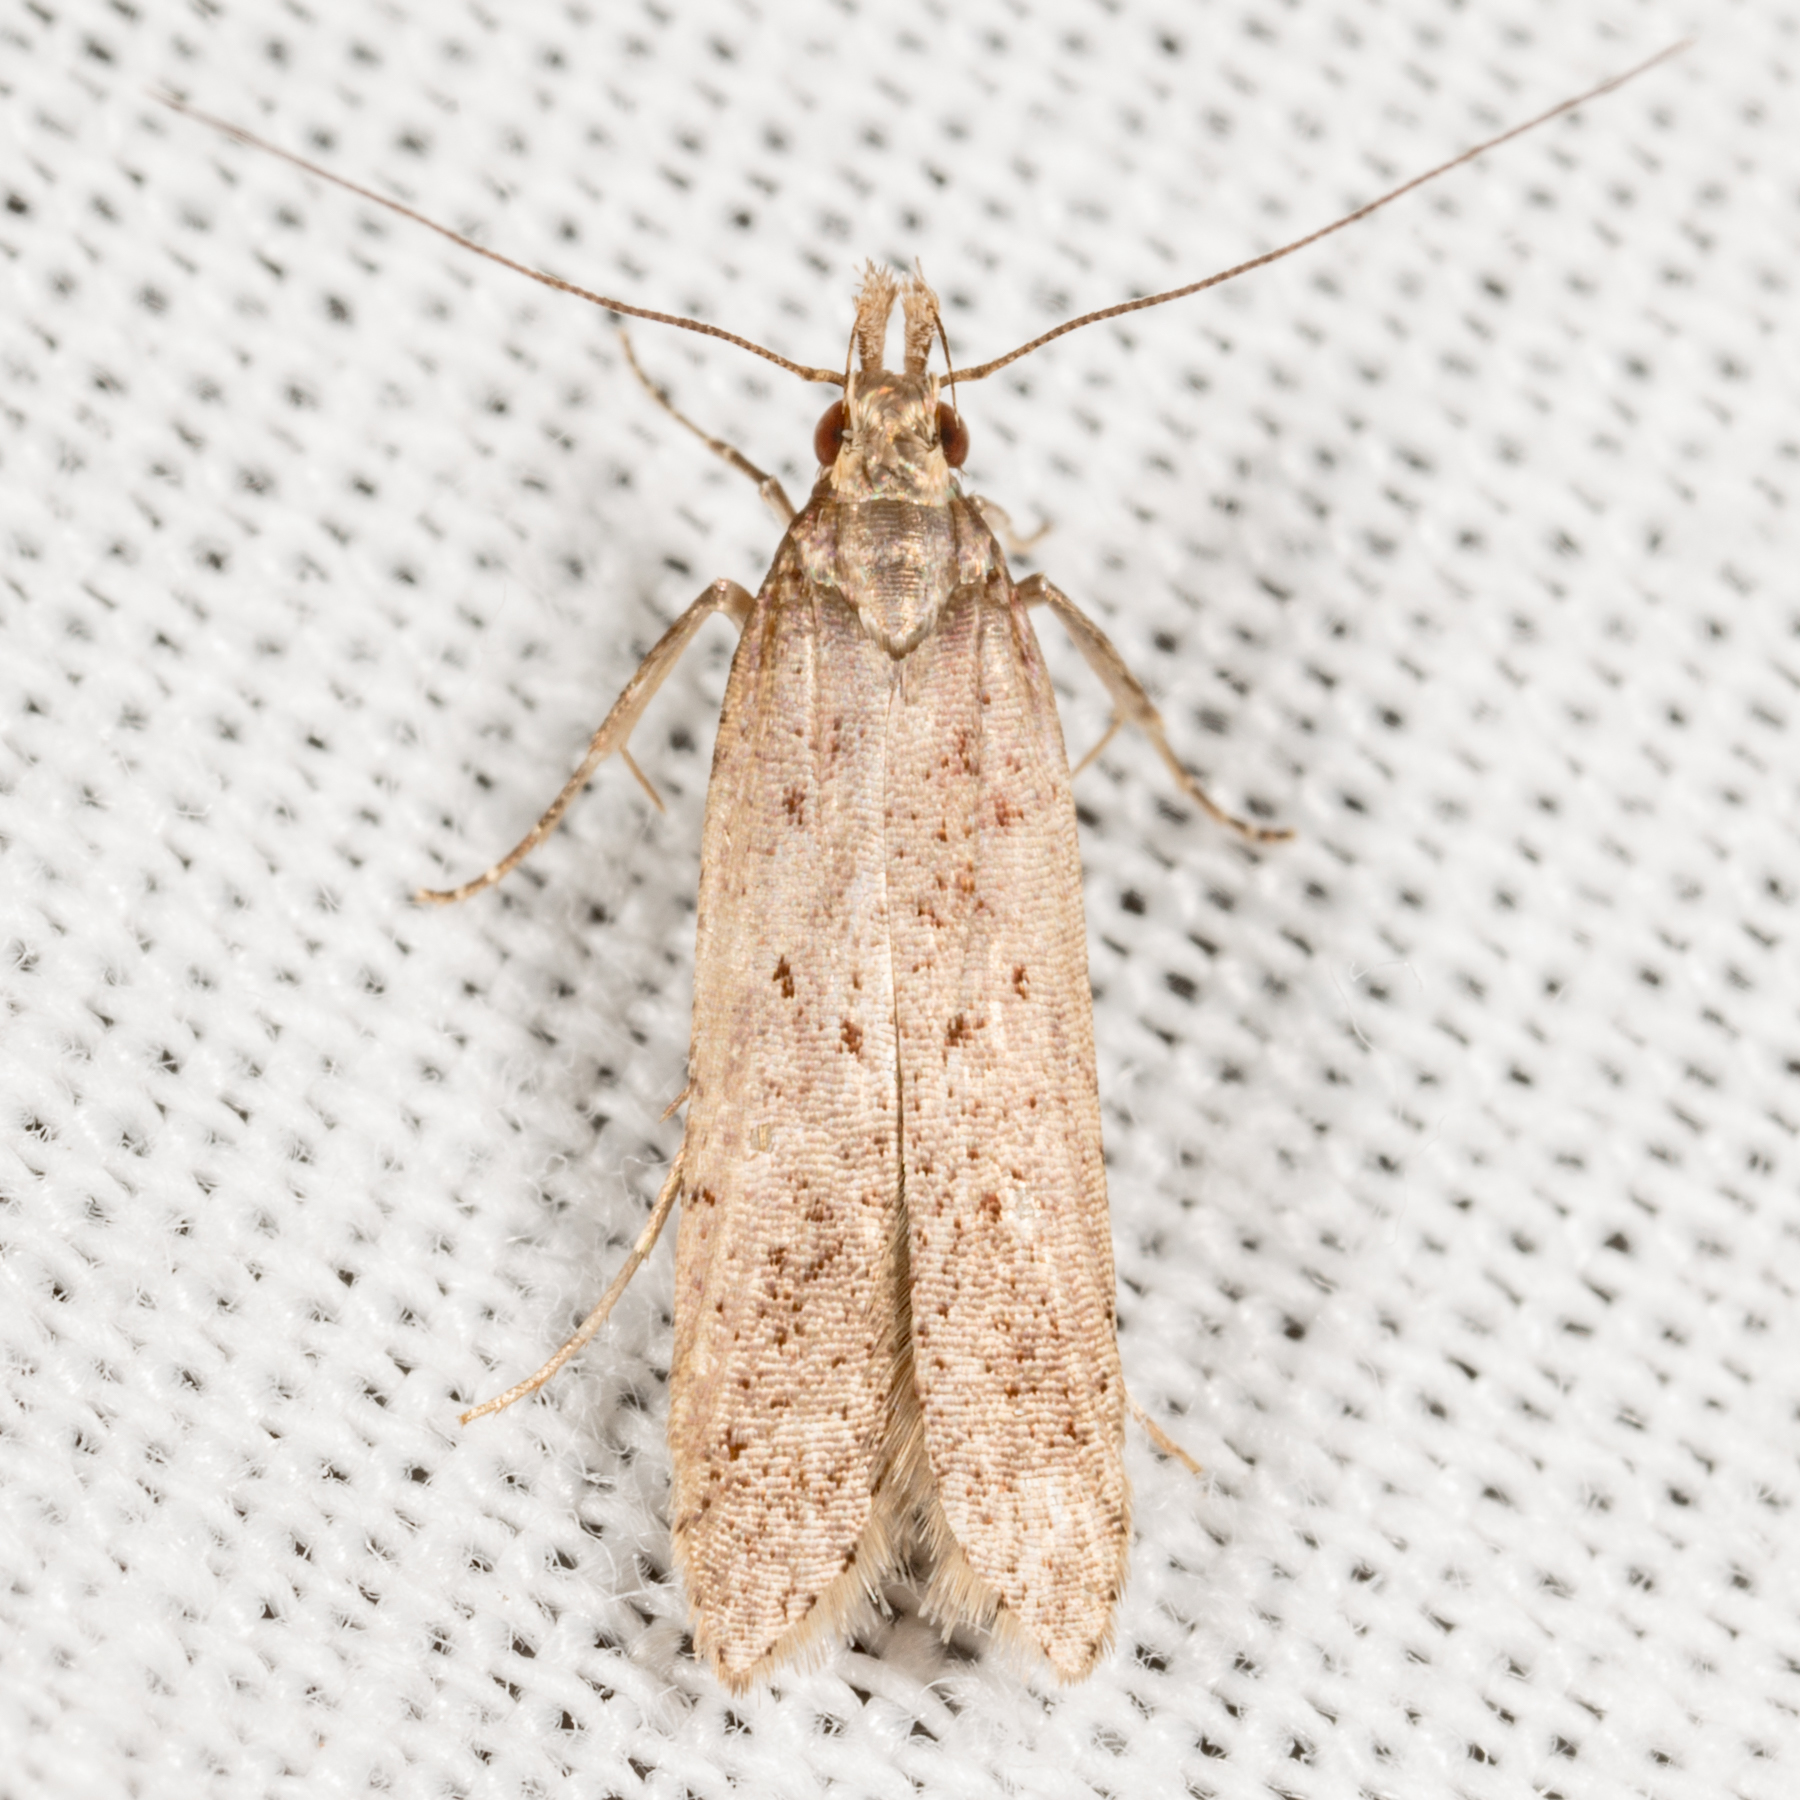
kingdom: Animalia
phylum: Arthropoda
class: Insecta
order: Lepidoptera
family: Gelechiidae
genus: Dichomeris
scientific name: Dichomeris ligulella
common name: Moth
